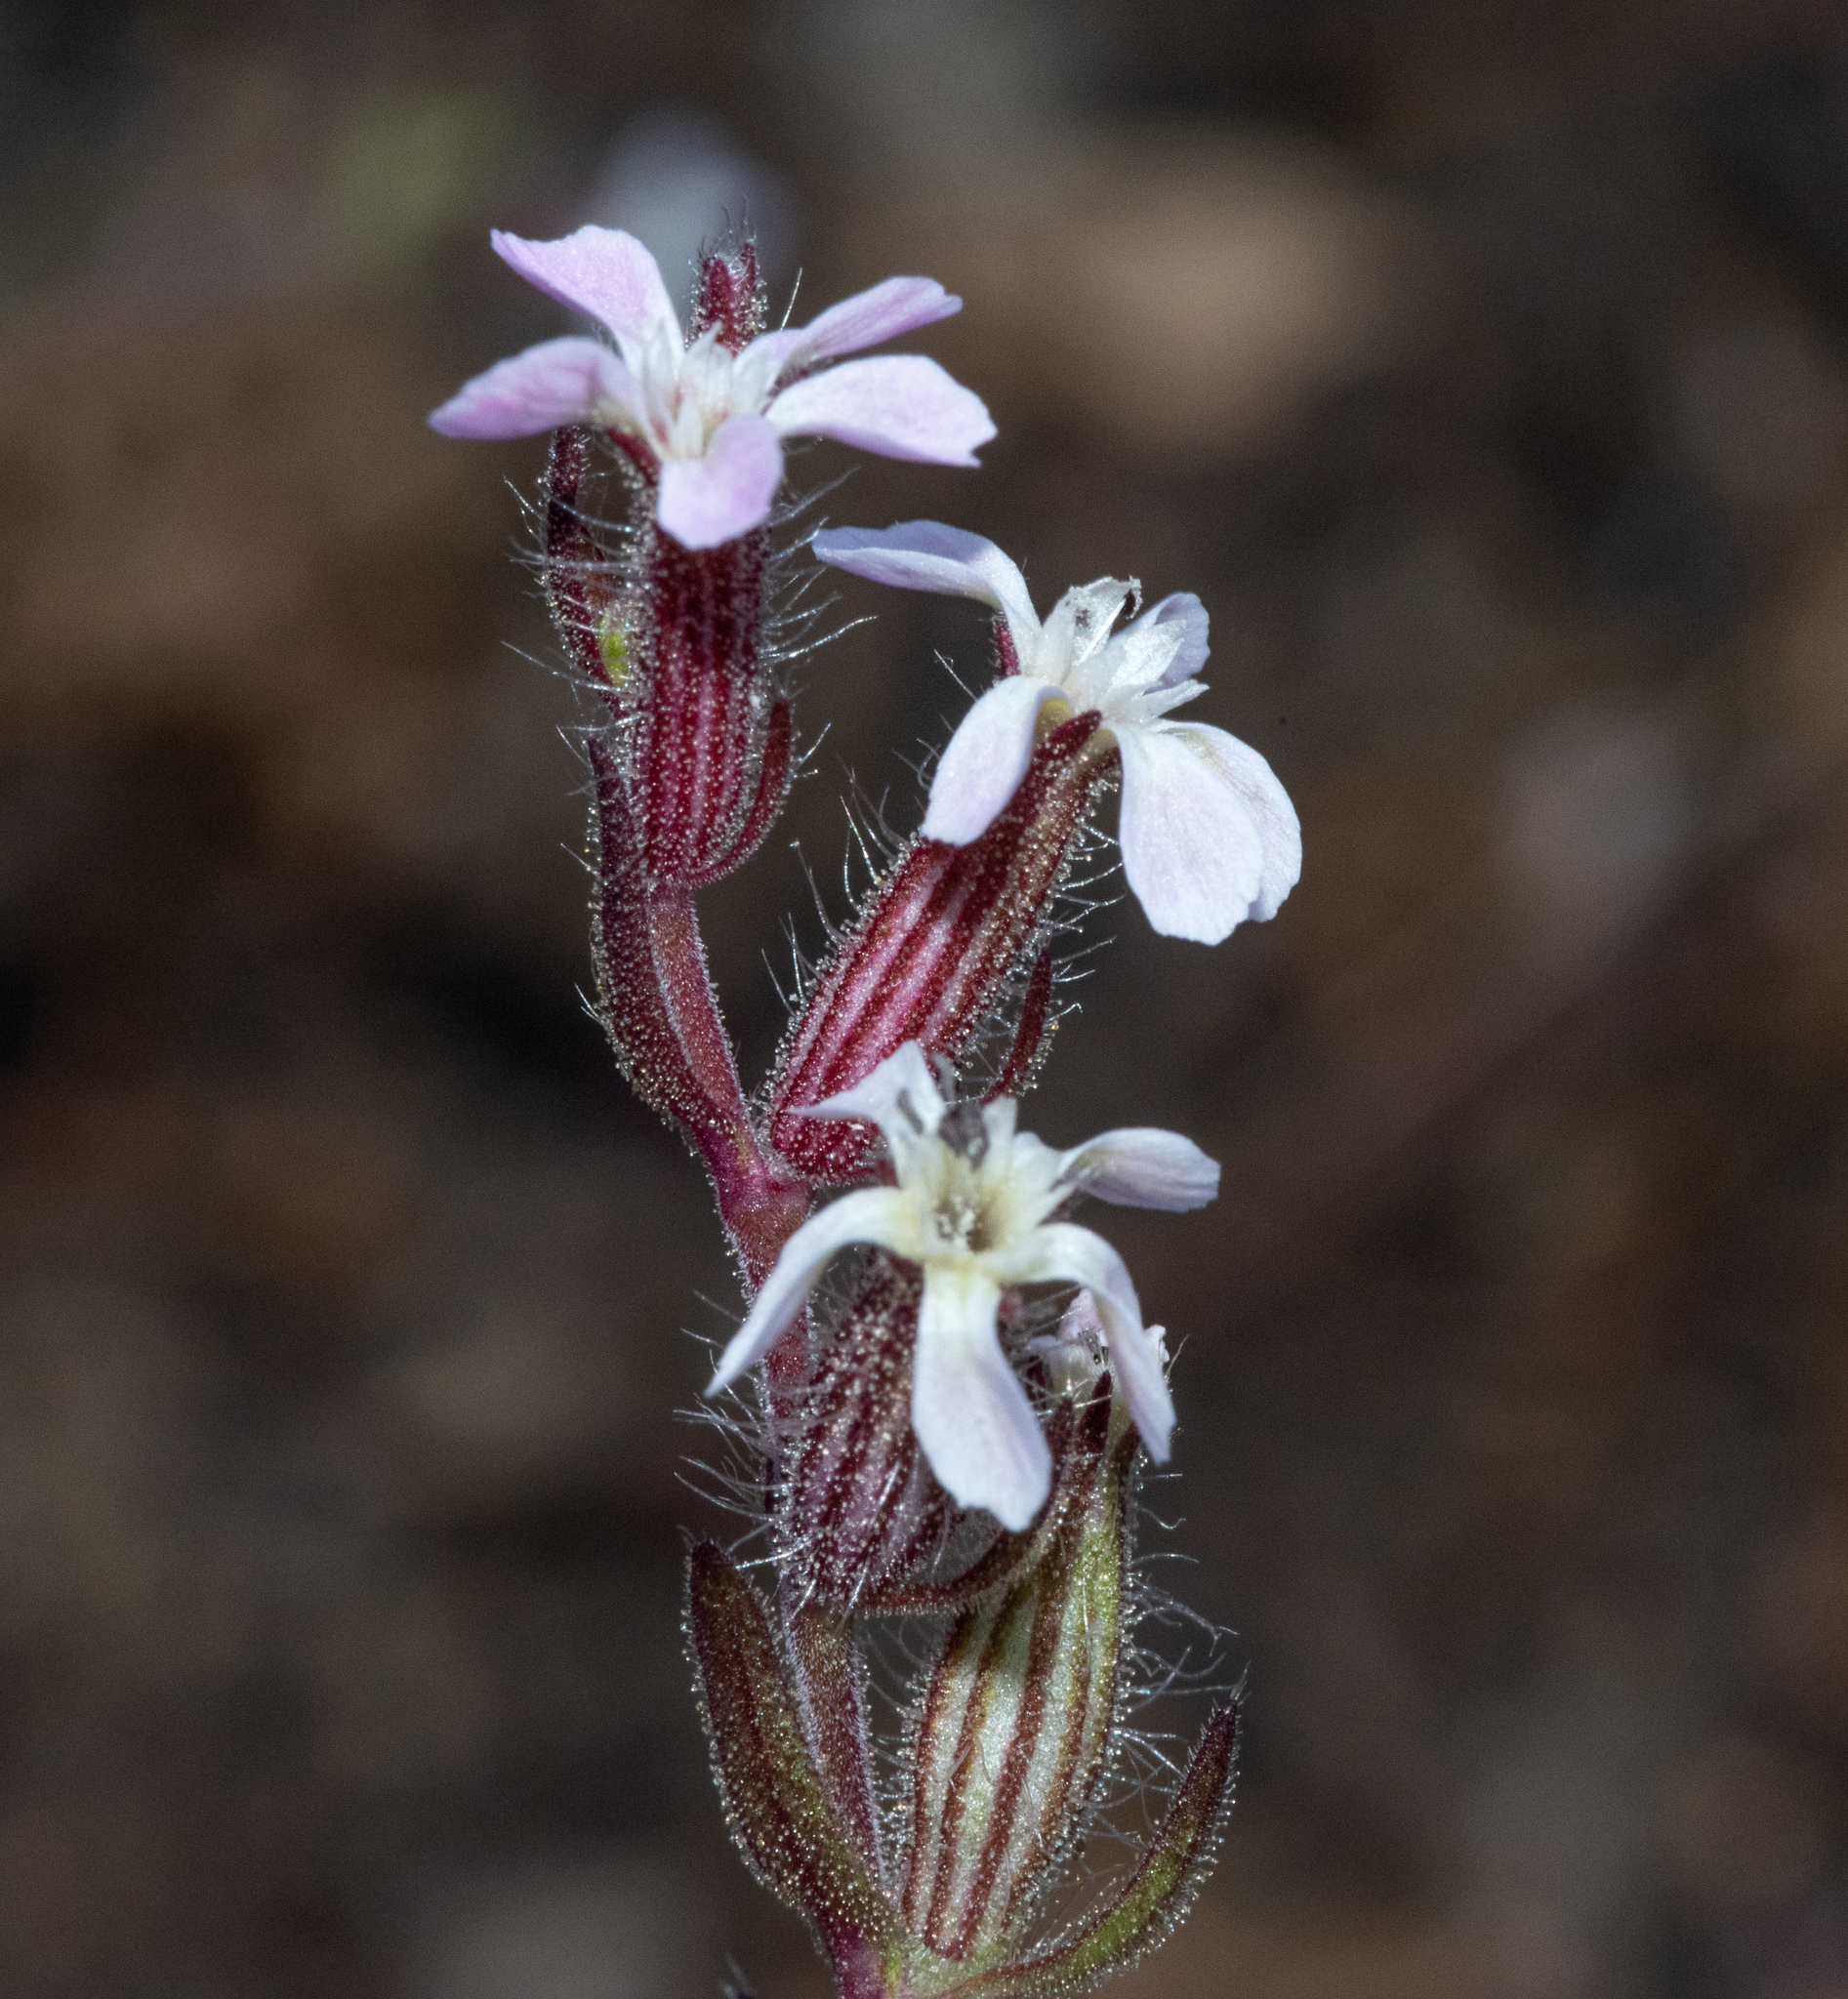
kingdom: Plantae
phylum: Tracheophyta
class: Magnoliopsida
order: Caryophyllales
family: Caryophyllaceae
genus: Silene
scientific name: Silene gallica
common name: Small-flowered catchfly
